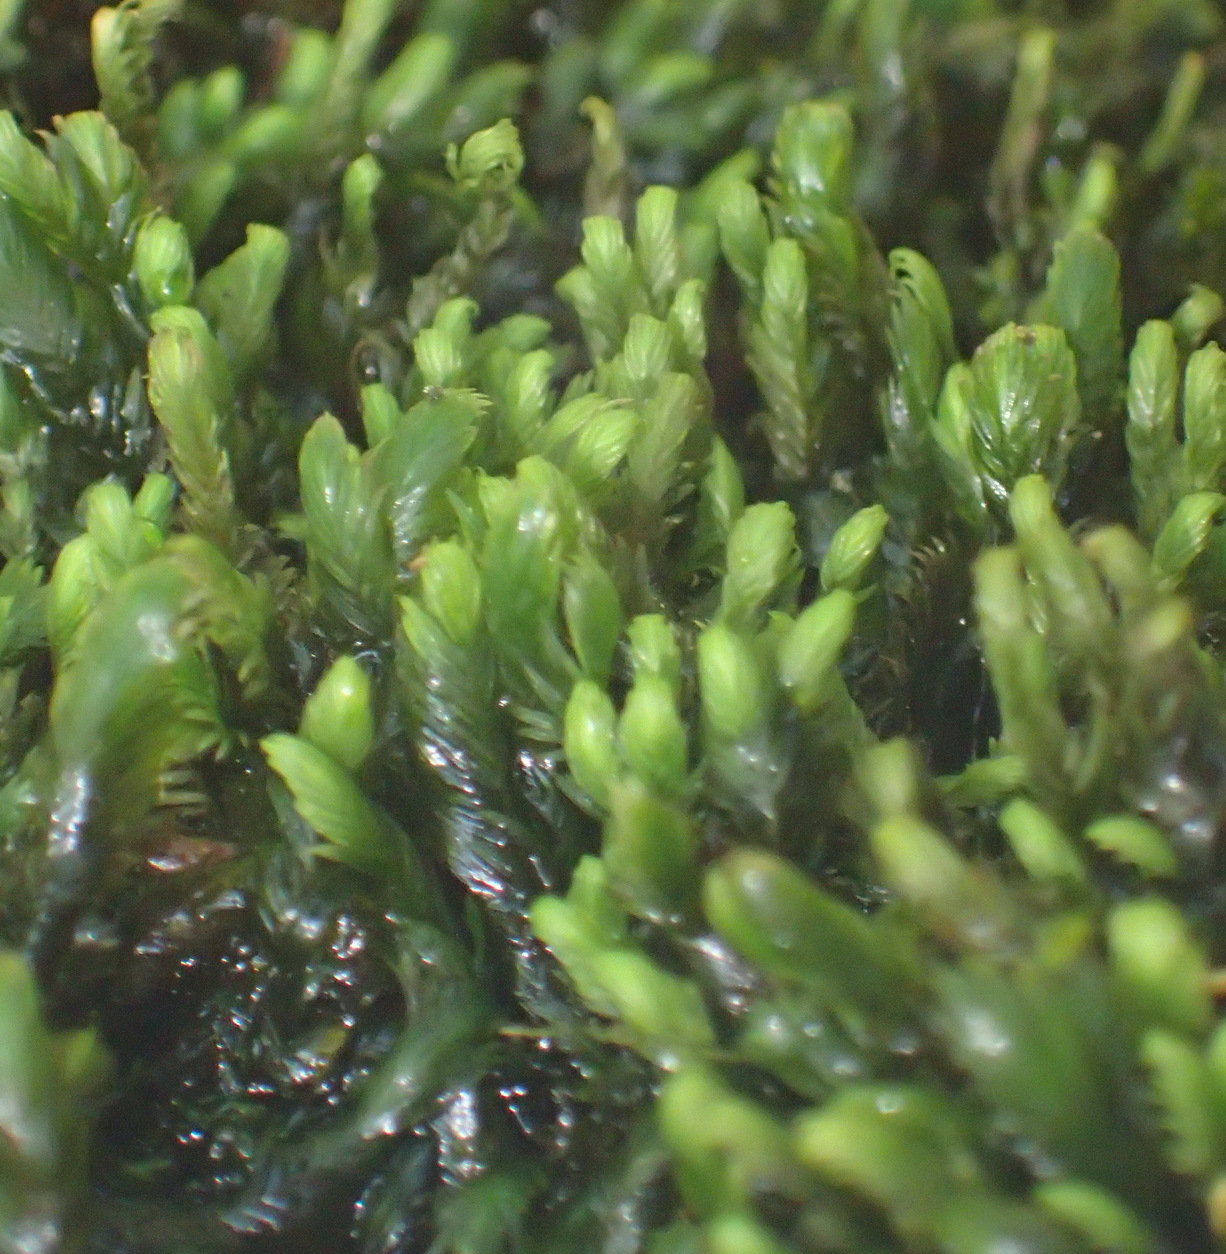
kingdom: Plantae
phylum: Bryophyta
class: Bryopsida
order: Dicranales
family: Fissidentaceae
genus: Fissidens
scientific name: Fissidens plumosus
